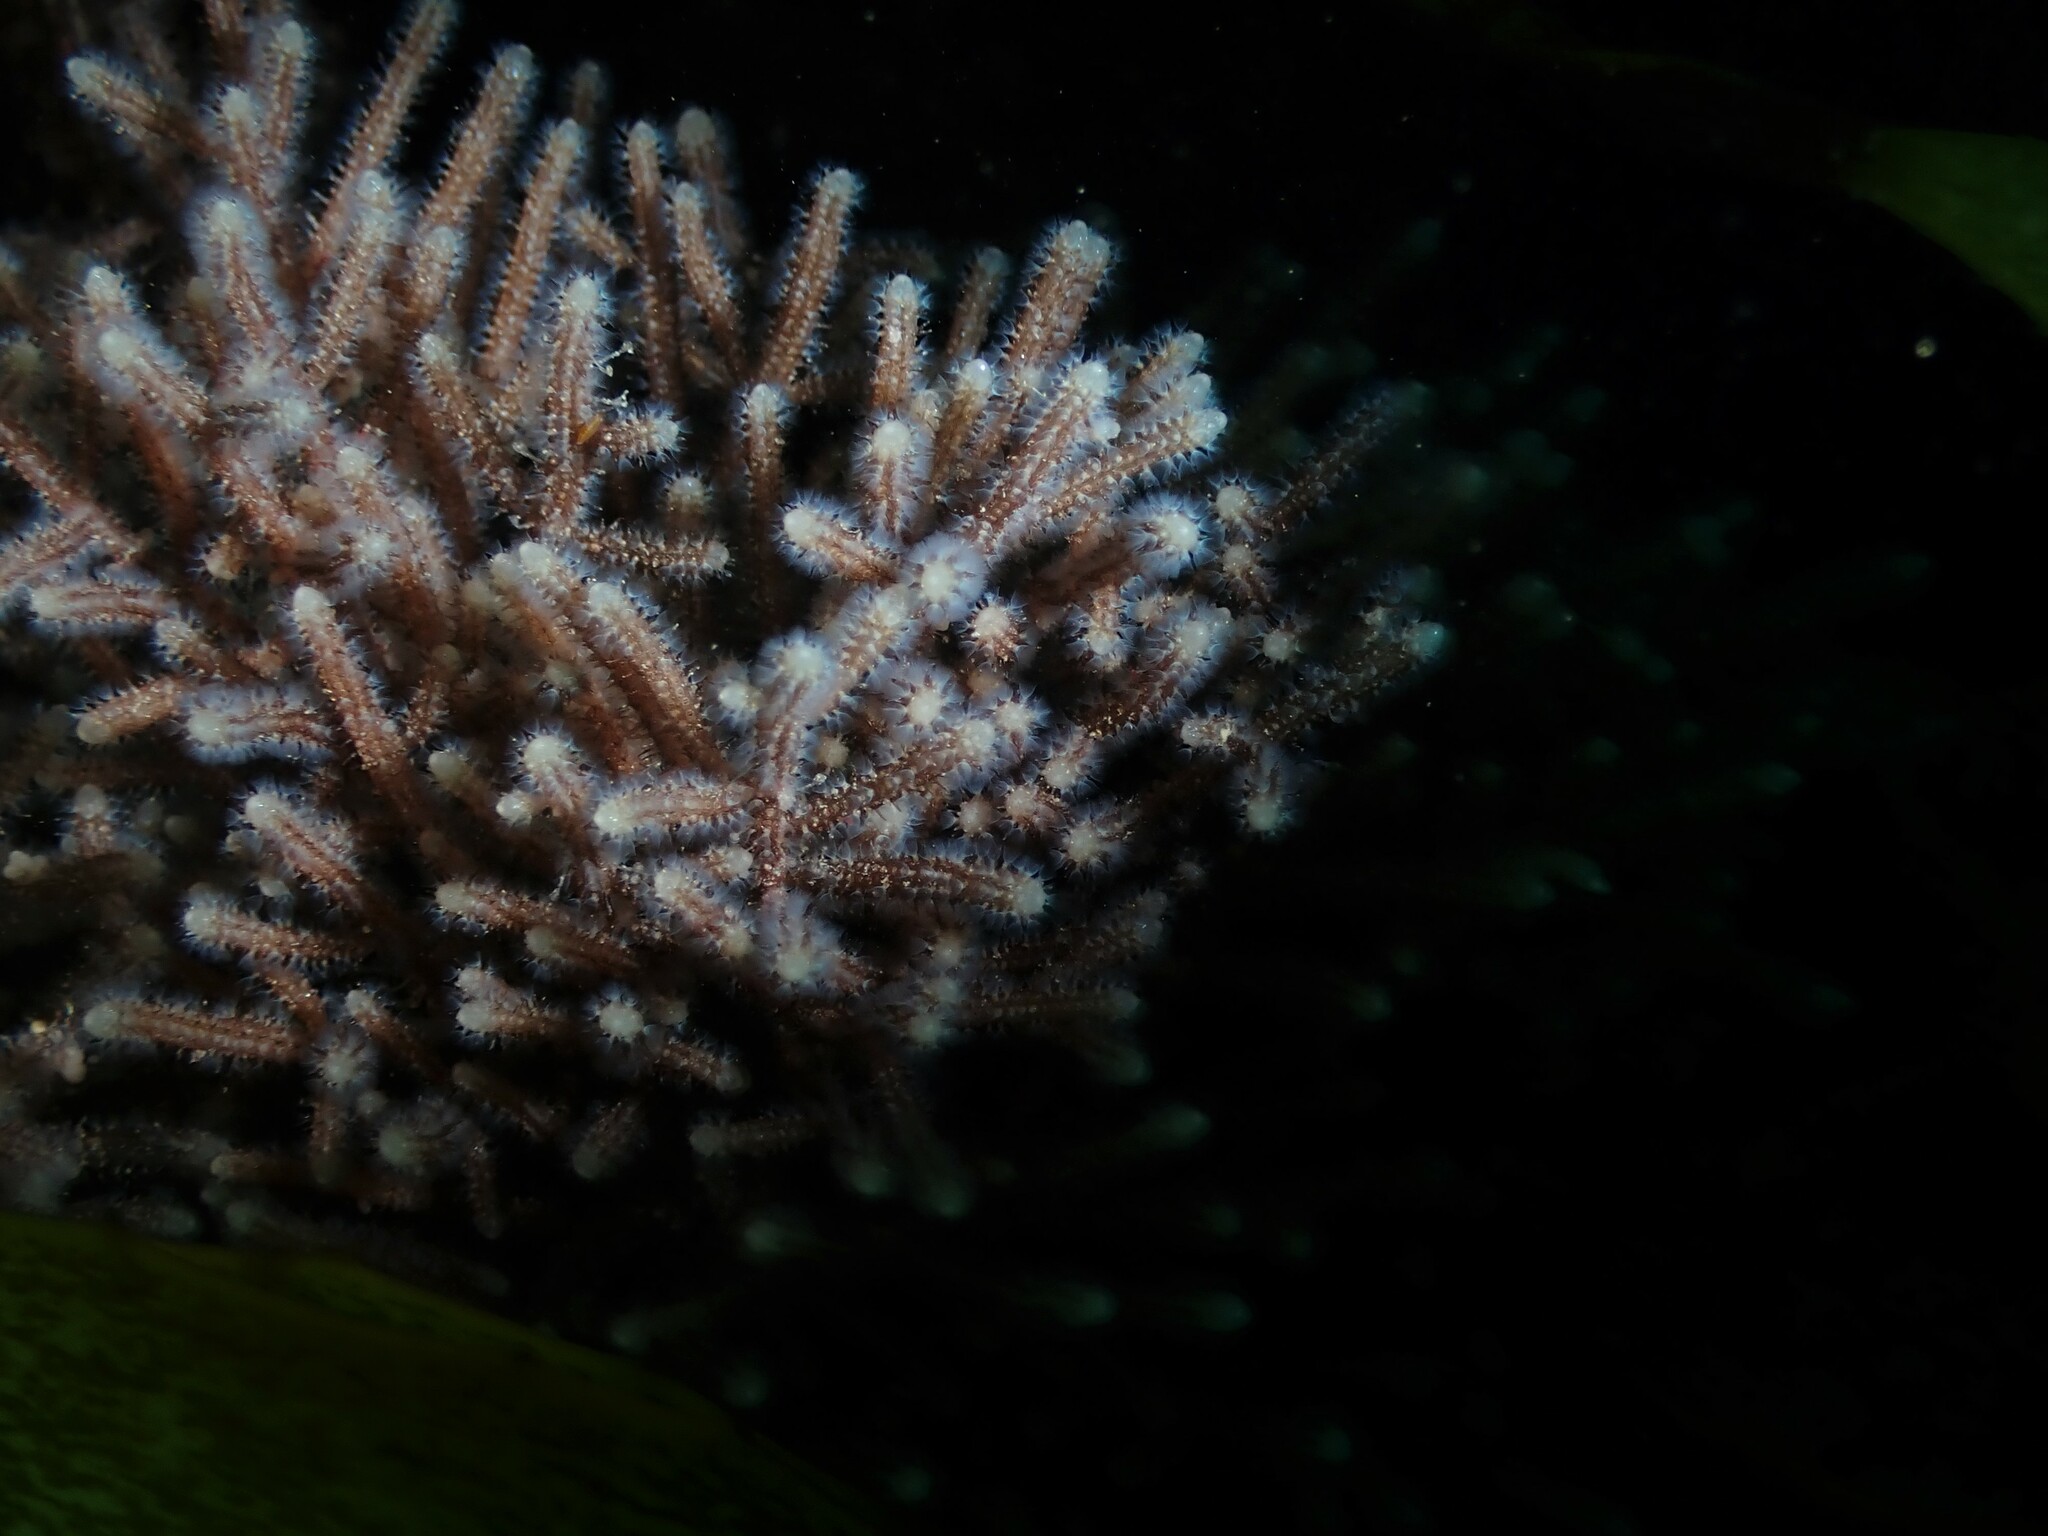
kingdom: Animalia
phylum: Bryozoa
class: Gymnolaemata
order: Ctenostomatida
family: Flustrellidridae
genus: Elzerina
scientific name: Elzerina binderi
